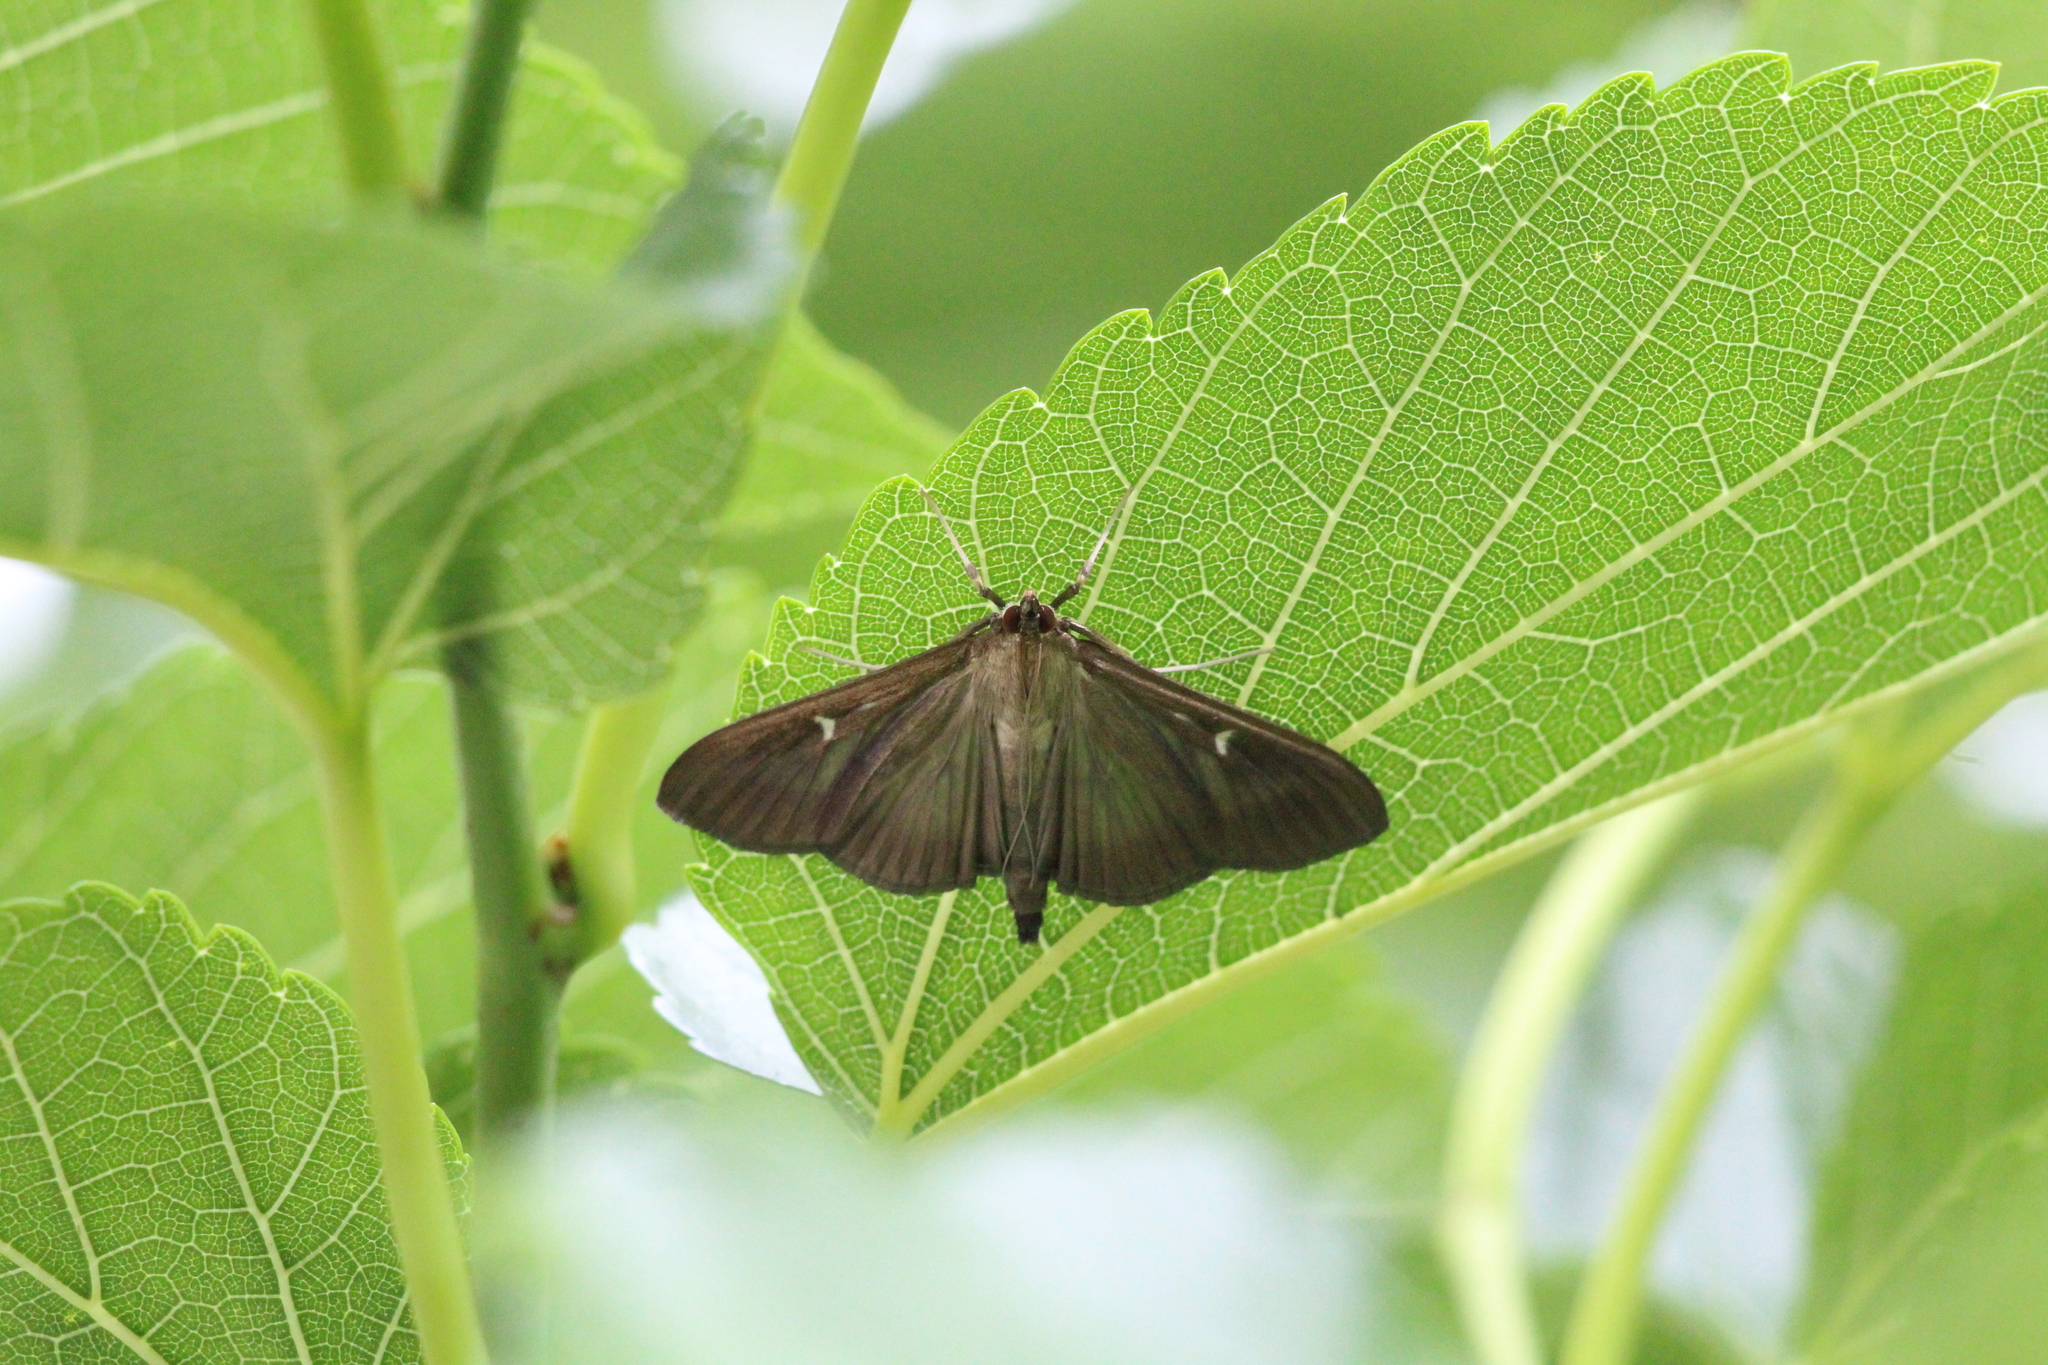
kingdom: Animalia
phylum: Arthropoda
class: Insecta
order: Lepidoptera
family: Crambidae
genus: Cydalima
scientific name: Cydalima perspectalis
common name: Box tree moth
